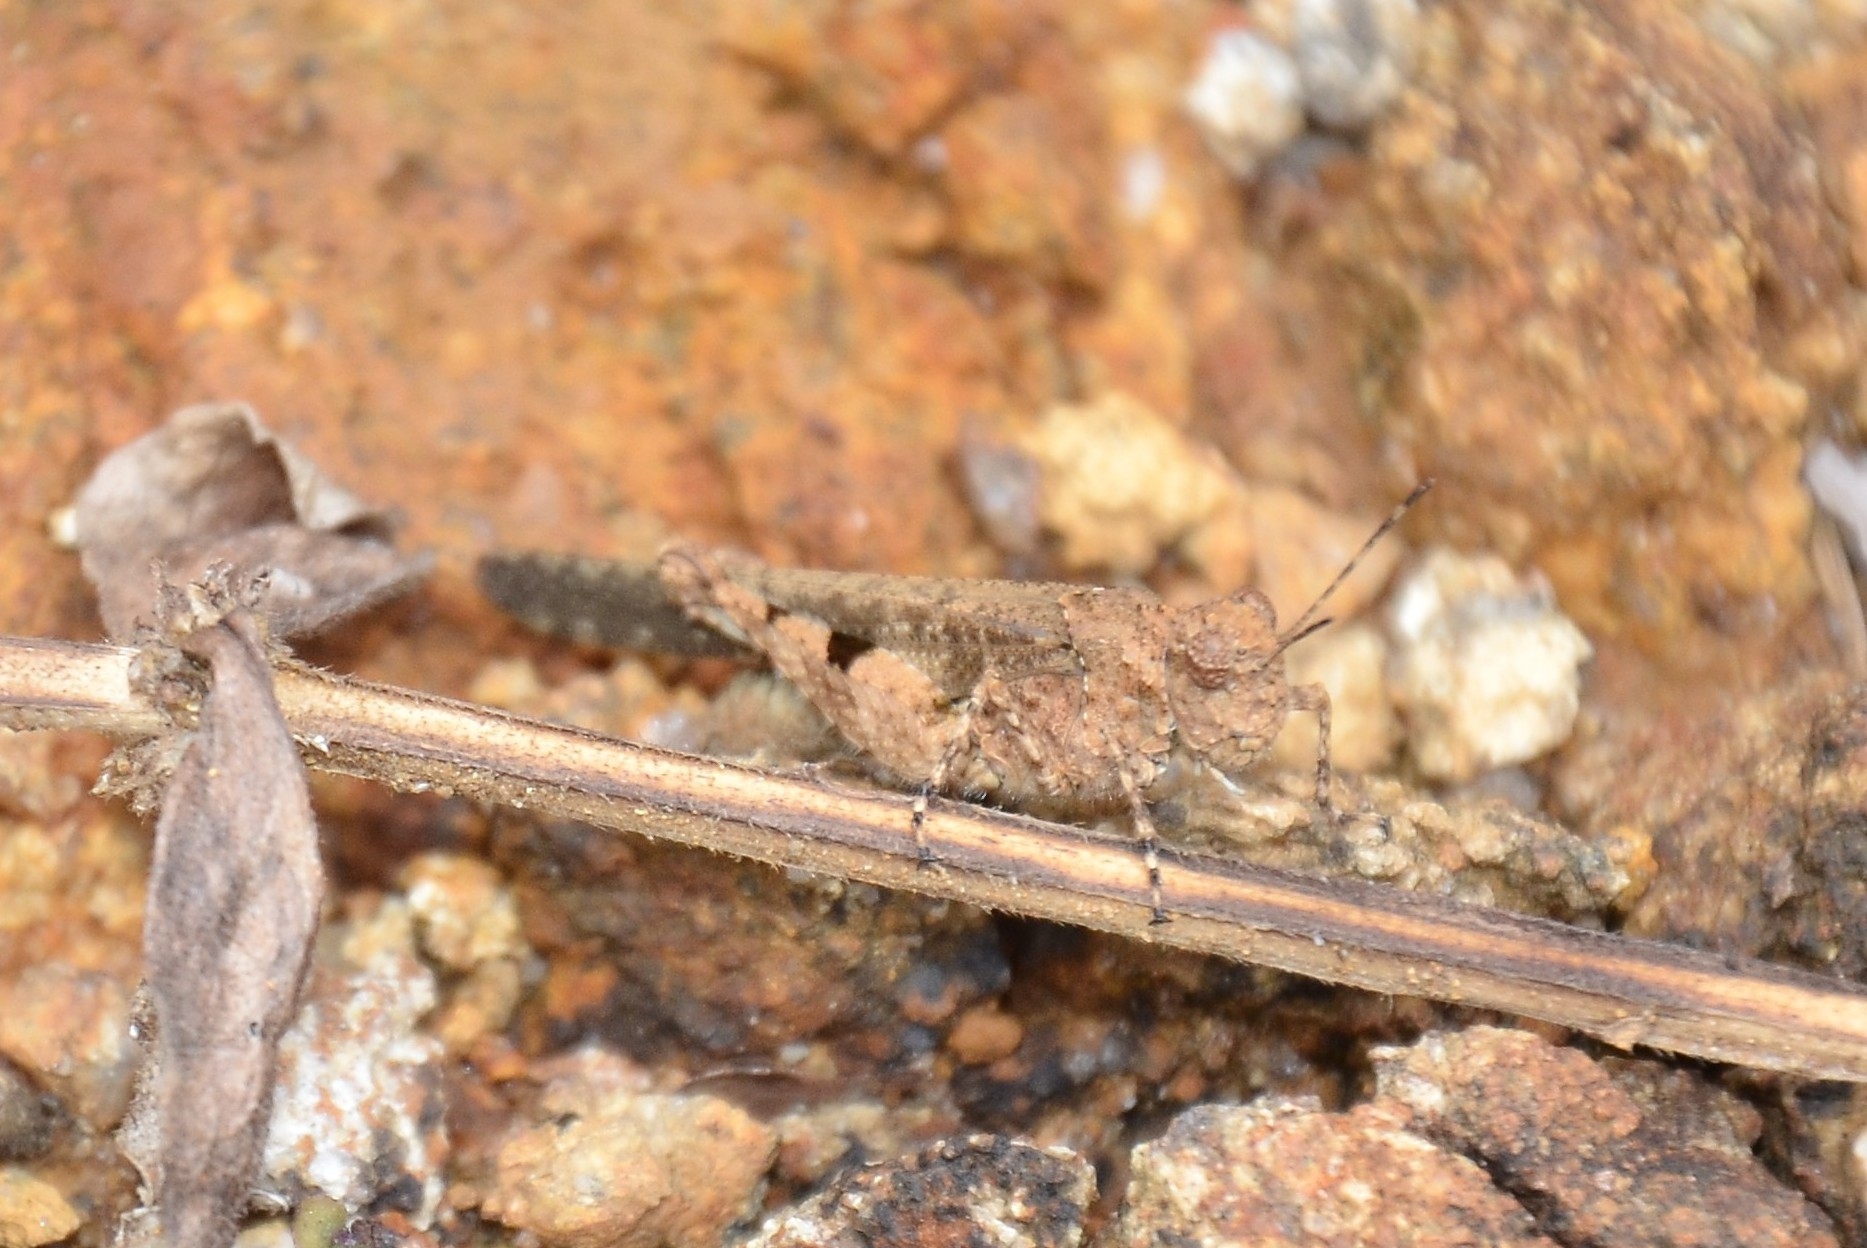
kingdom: Animalia
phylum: Arthropoda
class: Insecta
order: Orthoptera
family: Acrididae
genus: Trilophidia
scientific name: Trilophidia annulata
